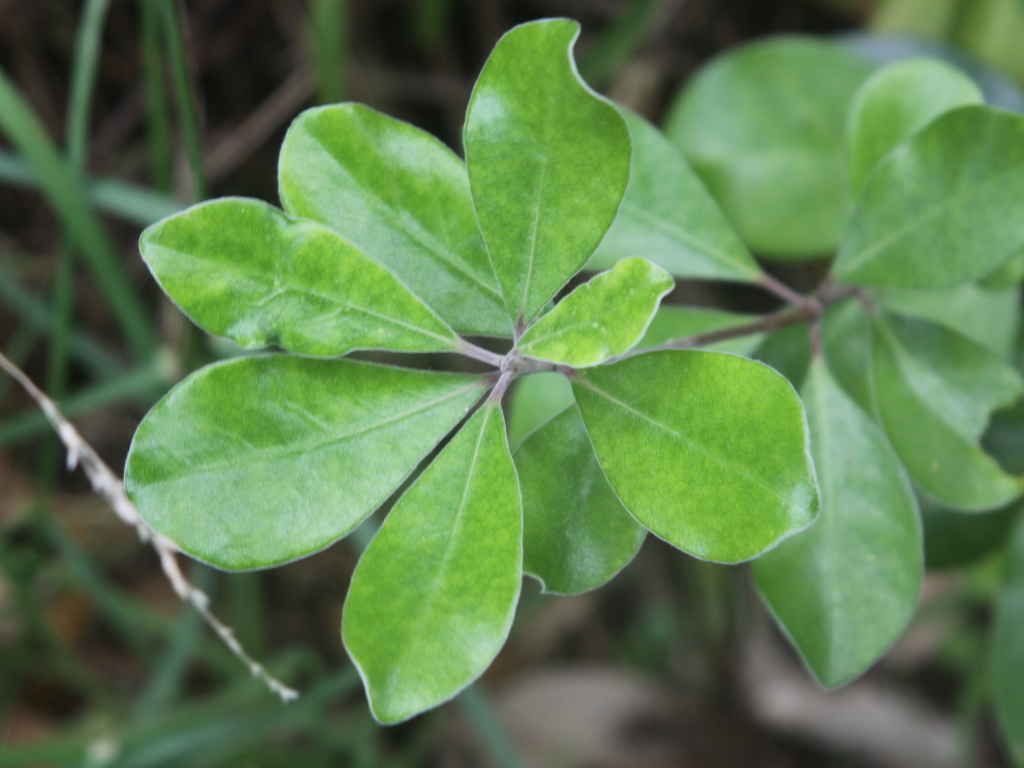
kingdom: Plantae
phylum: Tracheophyta
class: Magnoliopsida
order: Apiales
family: Pittosporaceae
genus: Pittosporum
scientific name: Pittosporum crassifolium
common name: Karo
